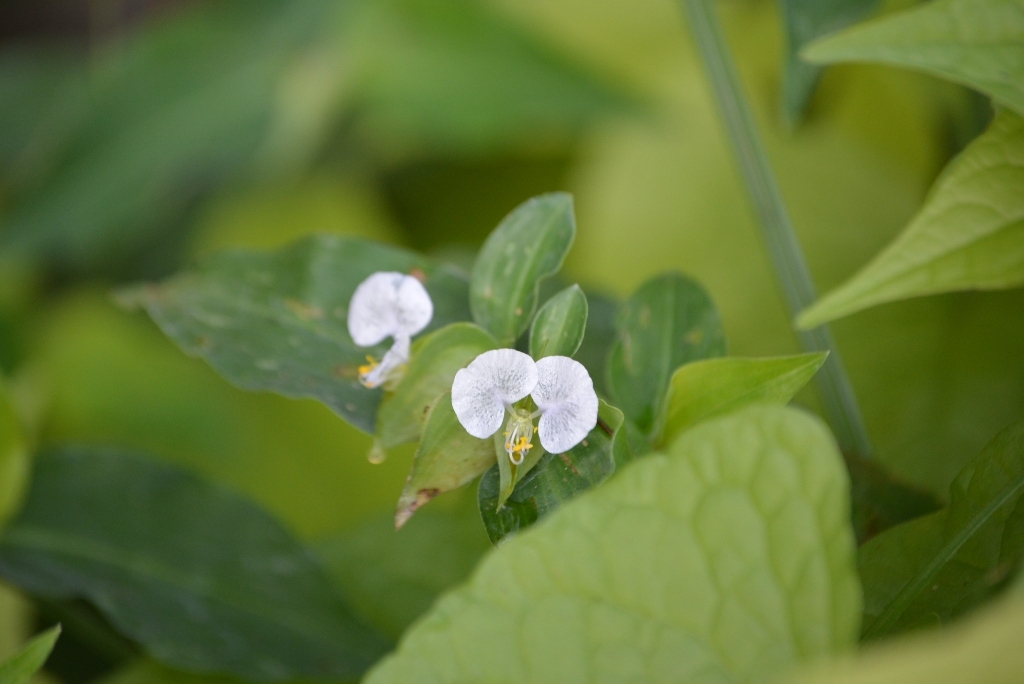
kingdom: Plantae
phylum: Tracheophyta
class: Liliopsida
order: Commelinales
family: Commelinaceae
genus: Commelina
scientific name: Commelina erecta
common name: Blousel blommetjie
